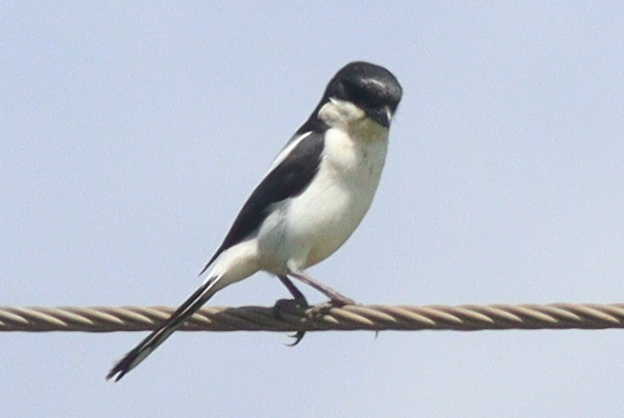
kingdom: Animalia
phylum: Chordata
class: Aves
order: Passeriformes
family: Laniidae
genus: Lanius
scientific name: Lanius humeralis
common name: Northern fiscal
